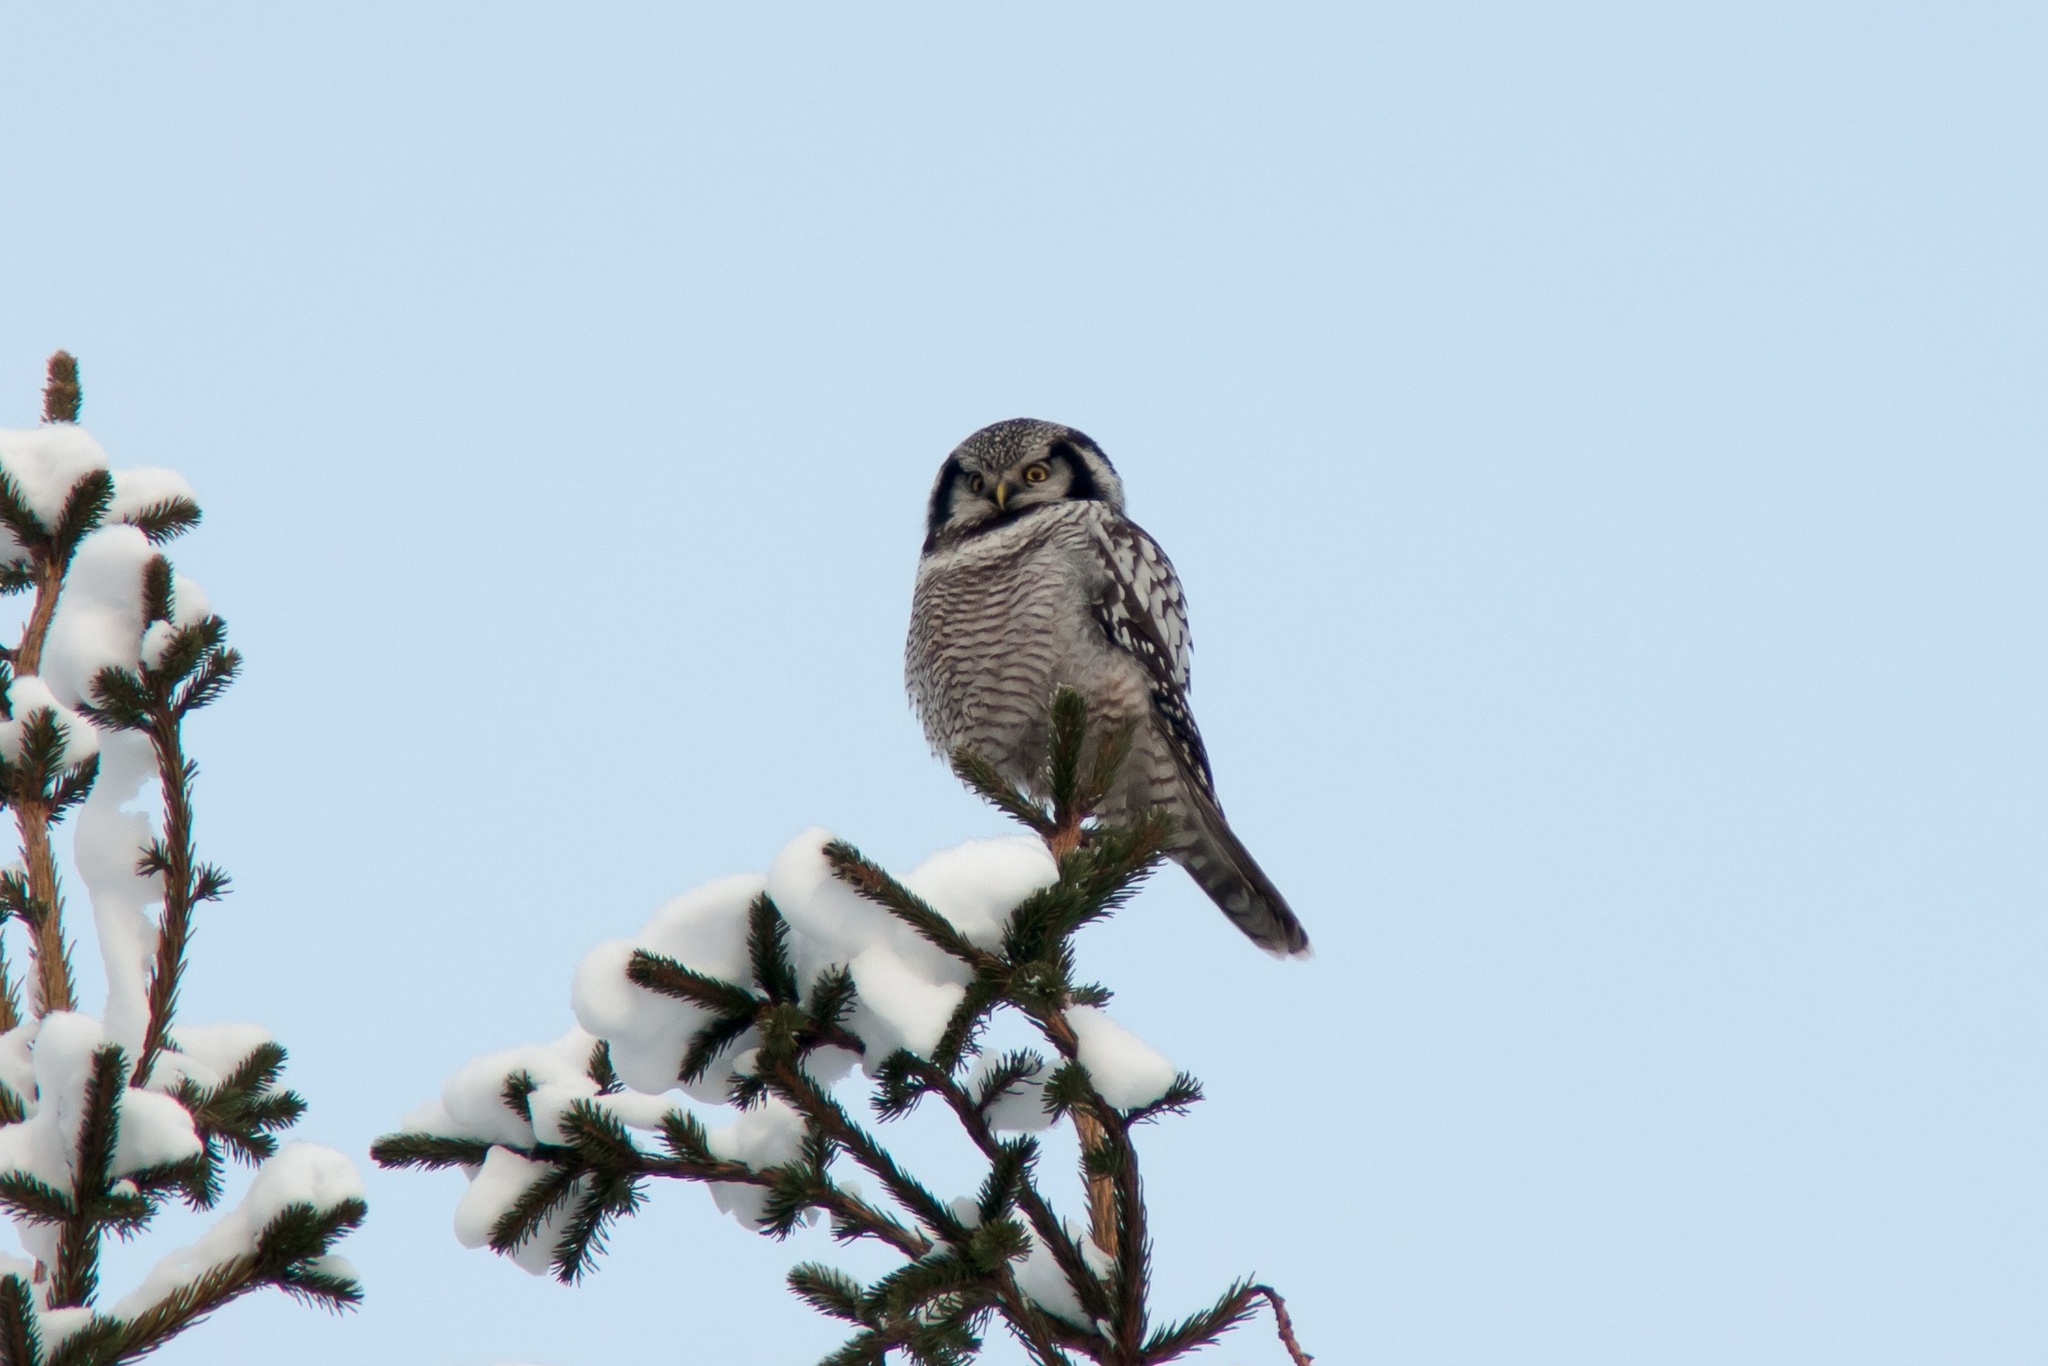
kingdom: Animalia
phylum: Chordata
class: Aves
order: Strigiformes
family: Strigidae
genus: Surnia
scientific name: Surnia ulula
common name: Northern hawk-owl
